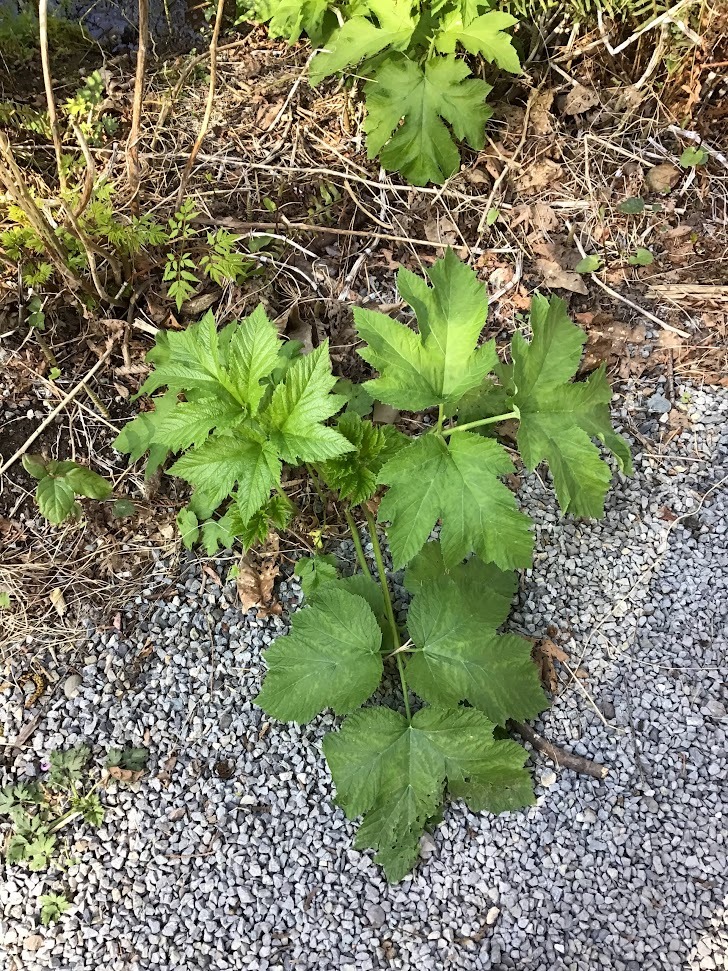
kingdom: Plantae
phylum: Tracheophyta
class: Magnoliopsida
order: Apiales
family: Apiaceae
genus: Heracleum
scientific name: Heracleum maximum
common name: American cow parsnip
